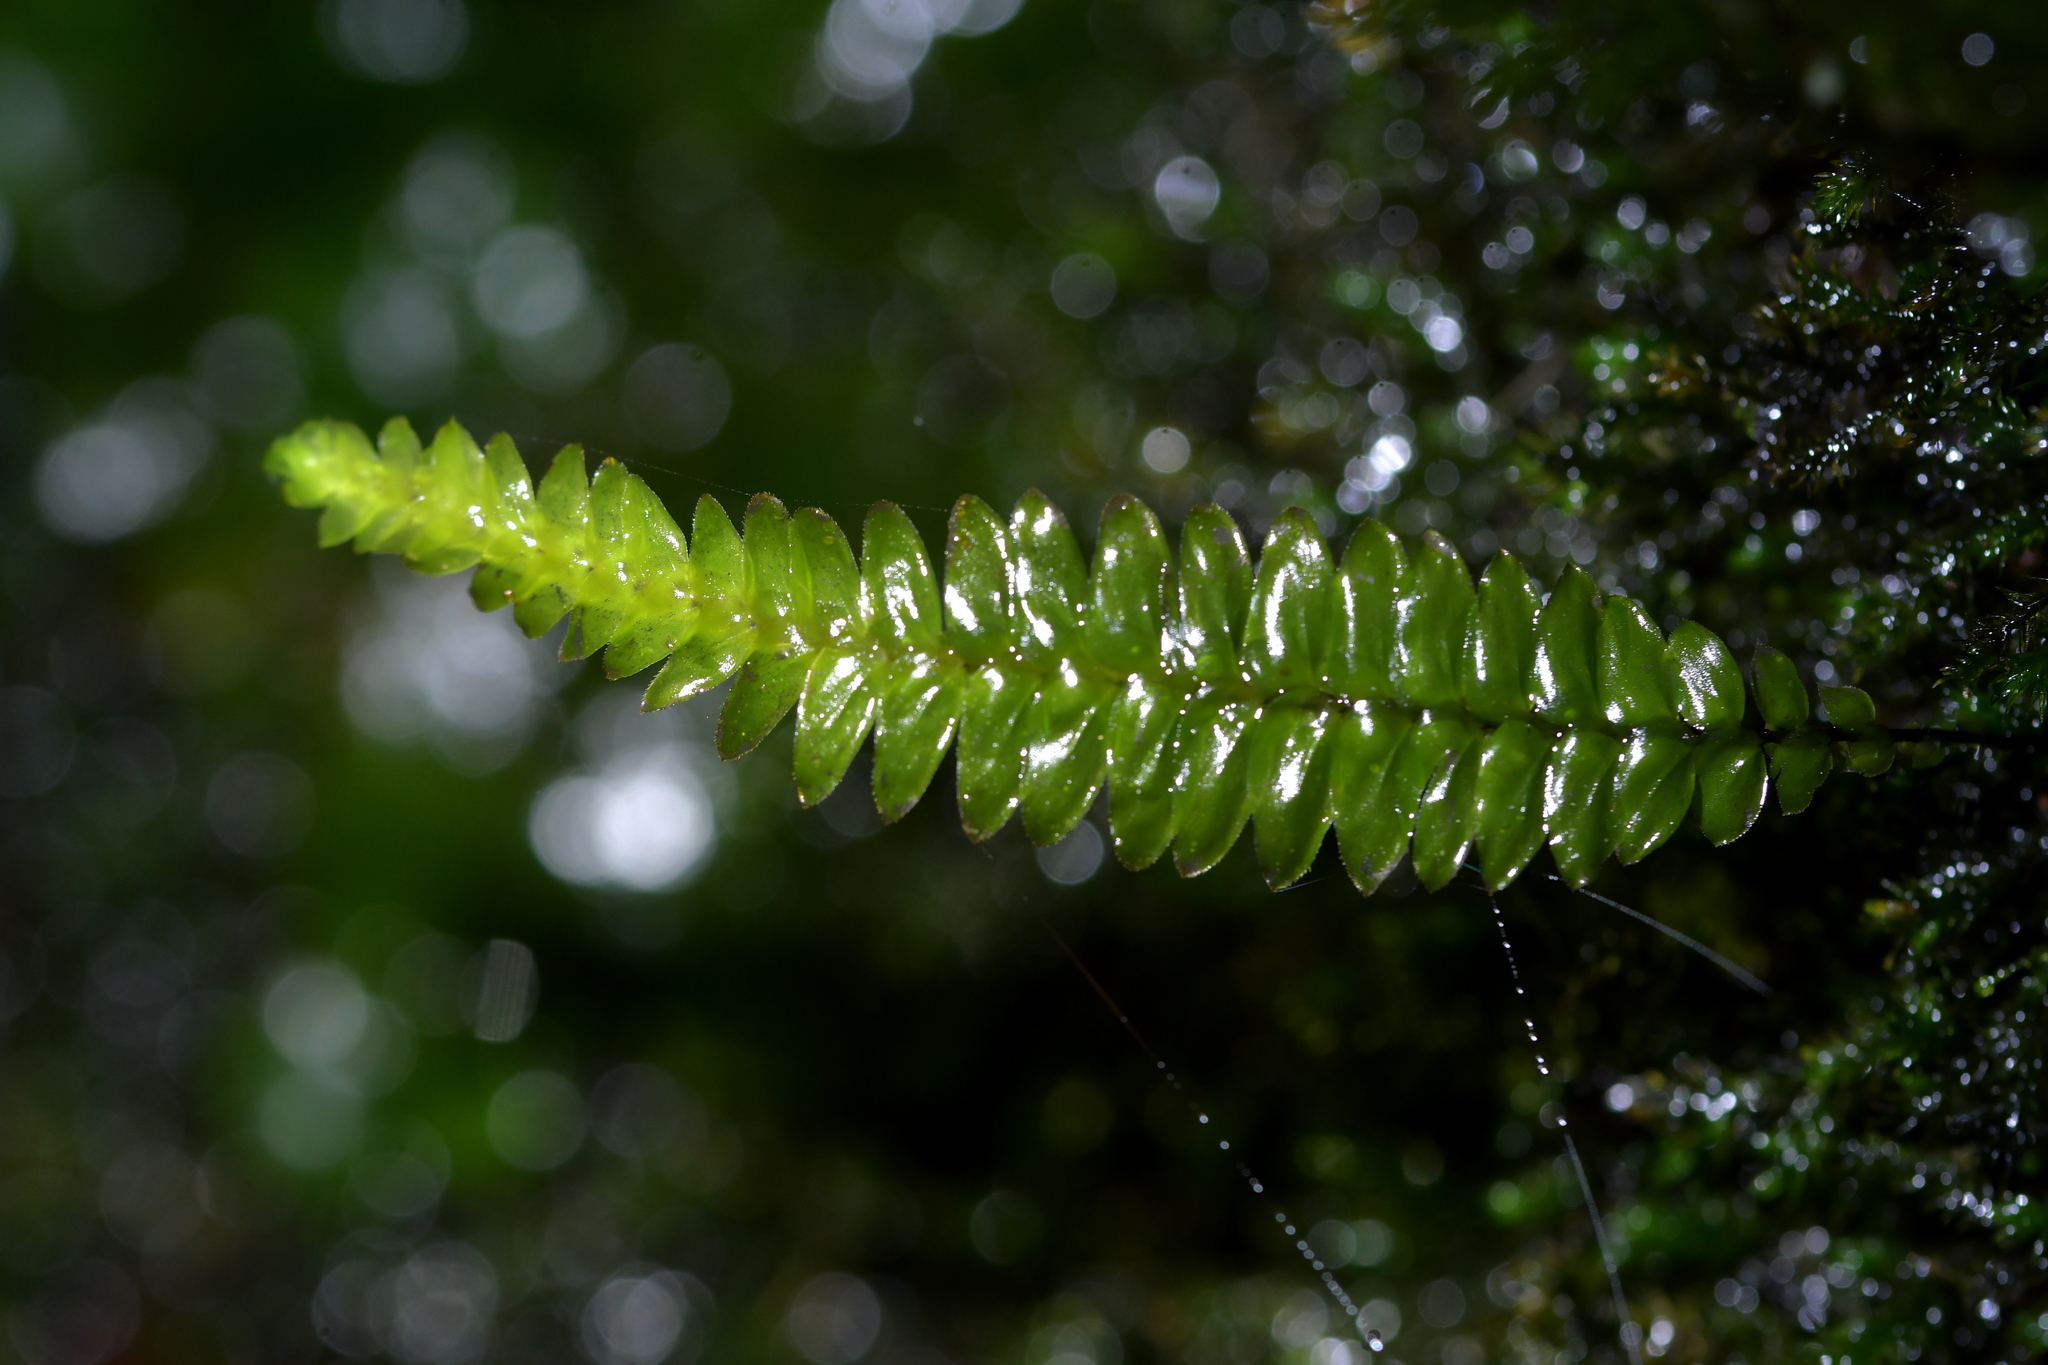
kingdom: Plantae
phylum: Bryophyta
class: Bryopsida
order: Hypopterygiales
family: Hypopterygiaceae
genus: Cyathophorum
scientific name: Cyathophorum bulbosum
